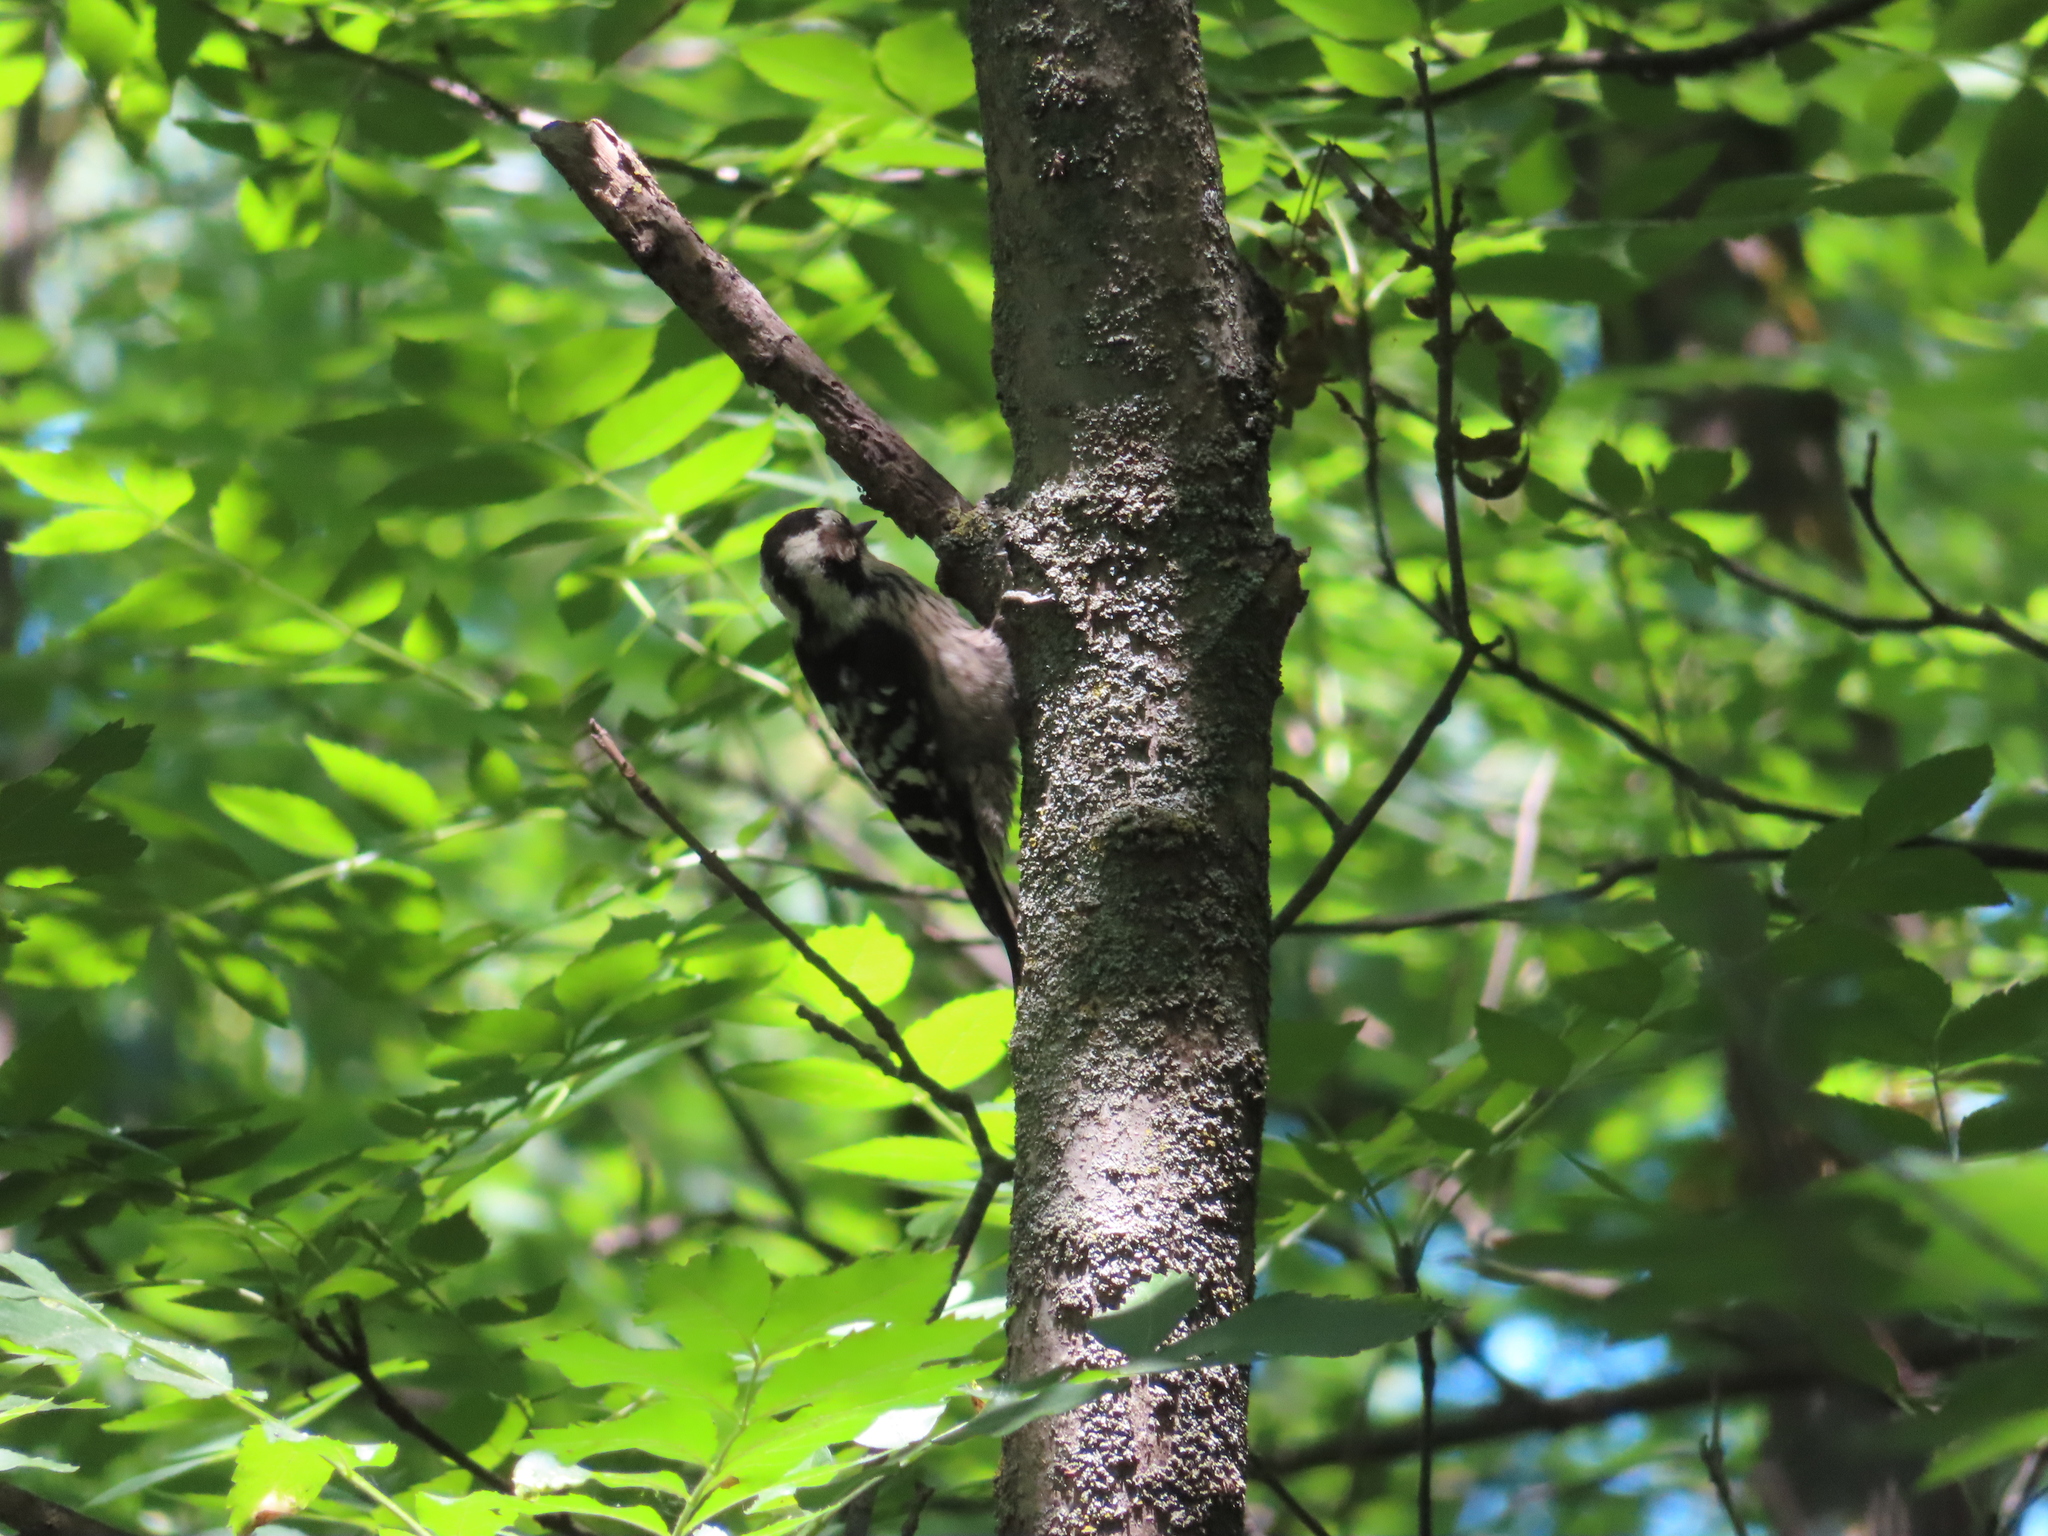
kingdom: Animalia
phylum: Chordata
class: Aves
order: Piciformes
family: Picidae
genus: Dryobates
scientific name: Dryobates minor
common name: Lesser spotted woodpecker
